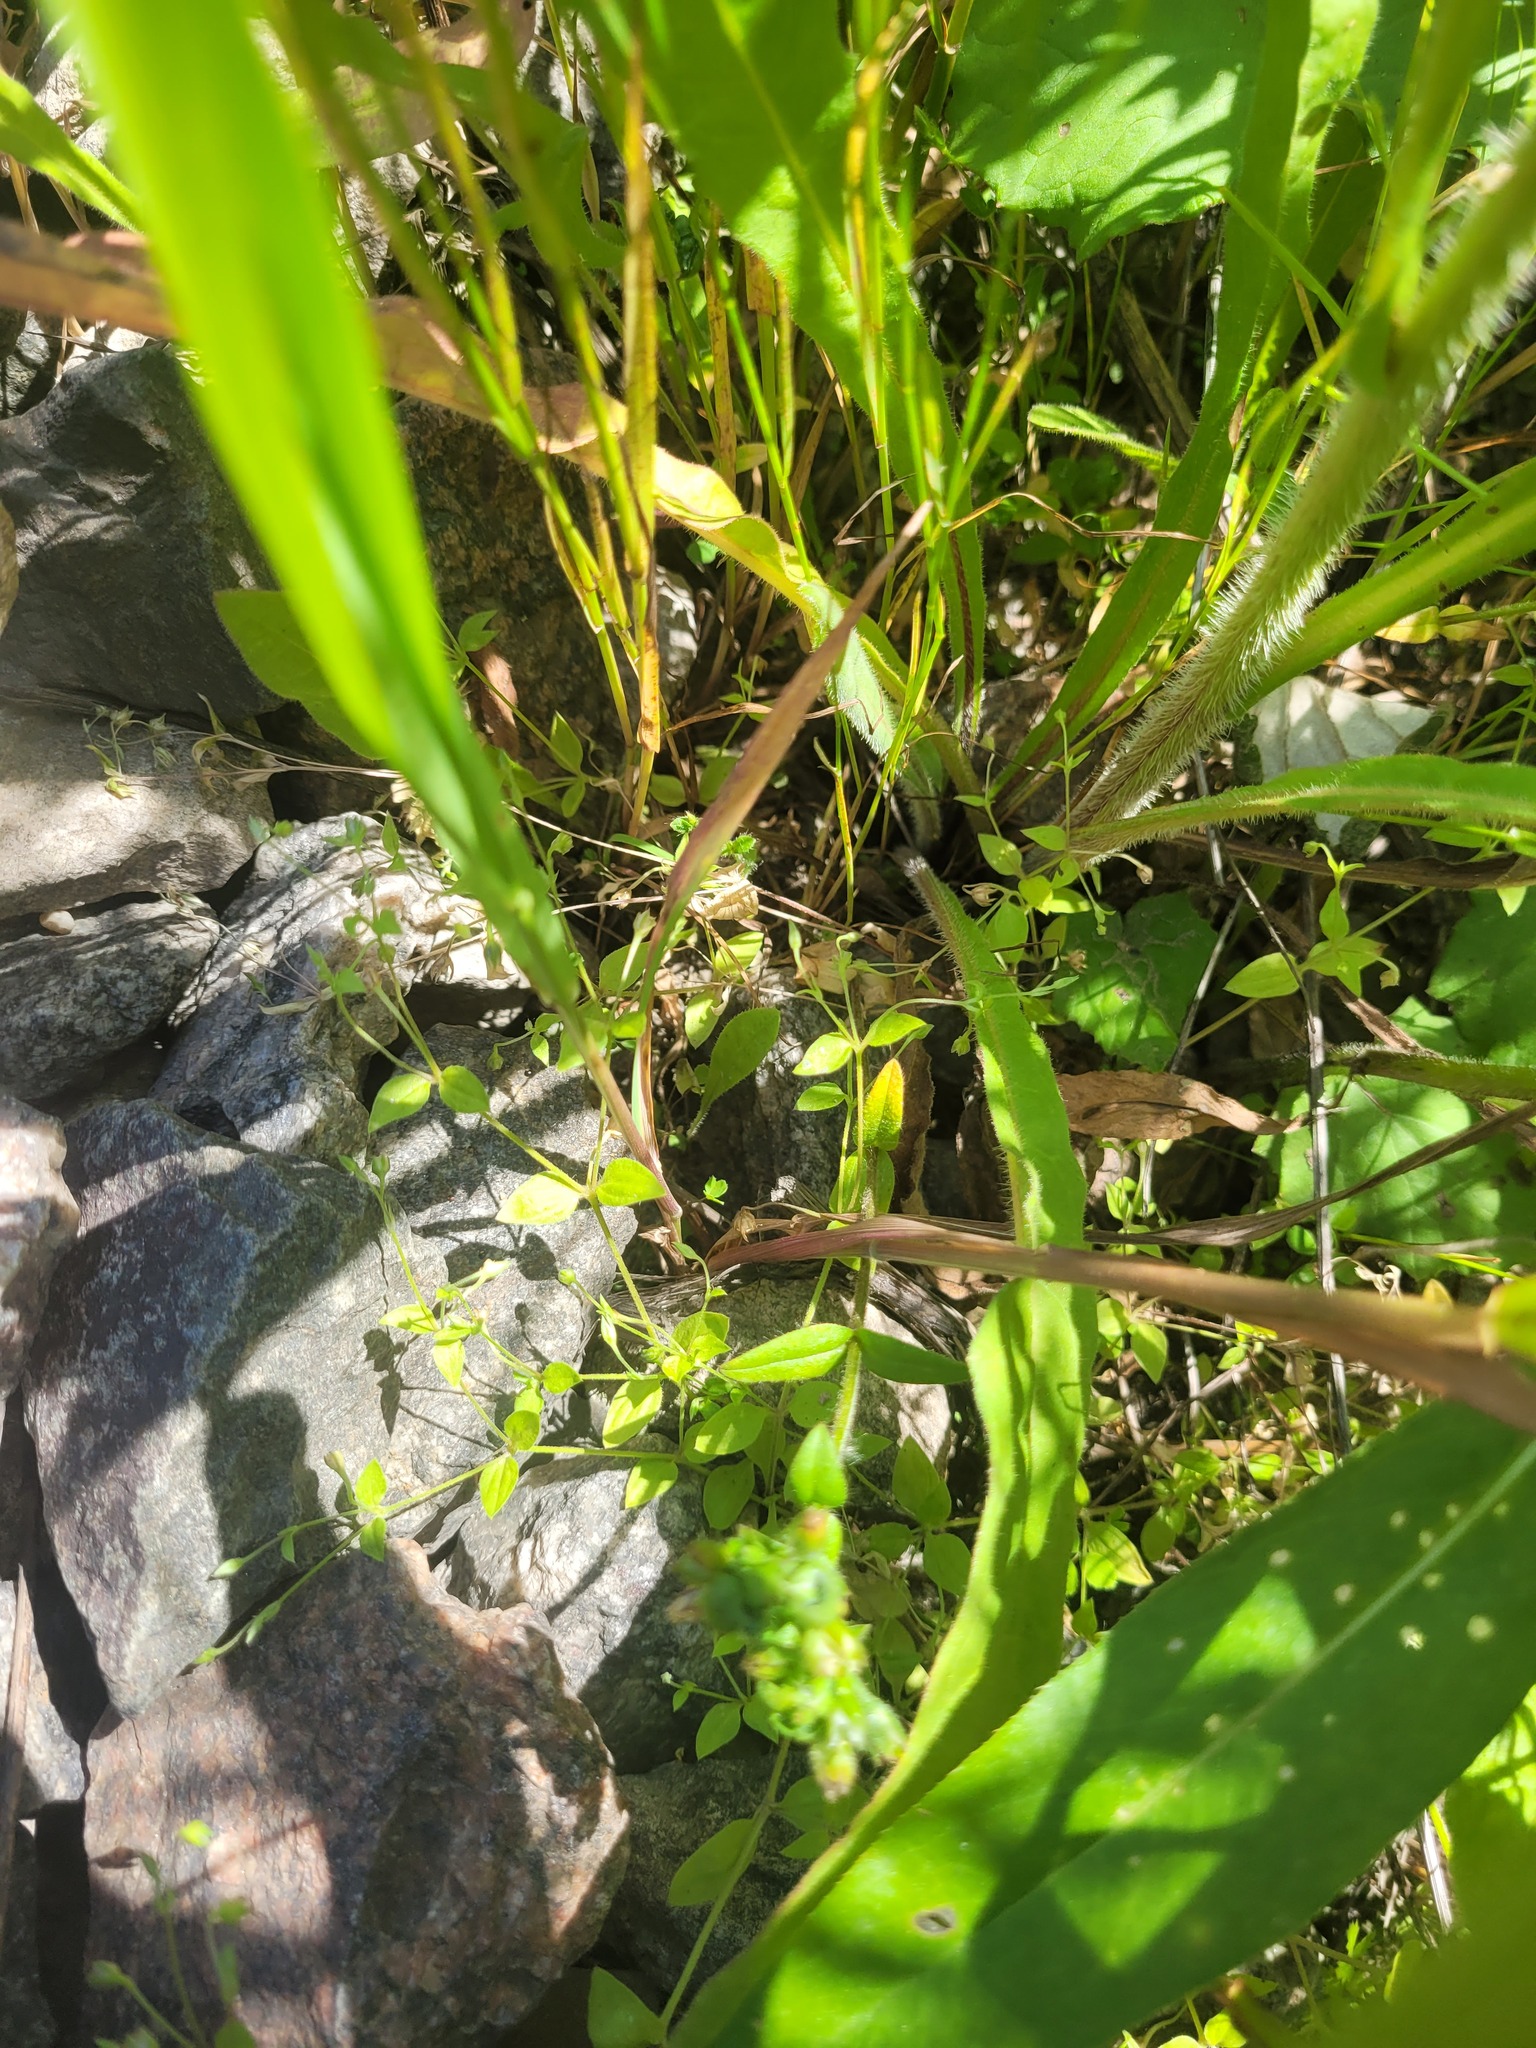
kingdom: Plantae
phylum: Tracheophyta
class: Magnoliopsida
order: Caryophyllales
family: Caryophyllaceae
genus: Moehringia
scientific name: Moehringia trinervia
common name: Three-nerved sandwort
